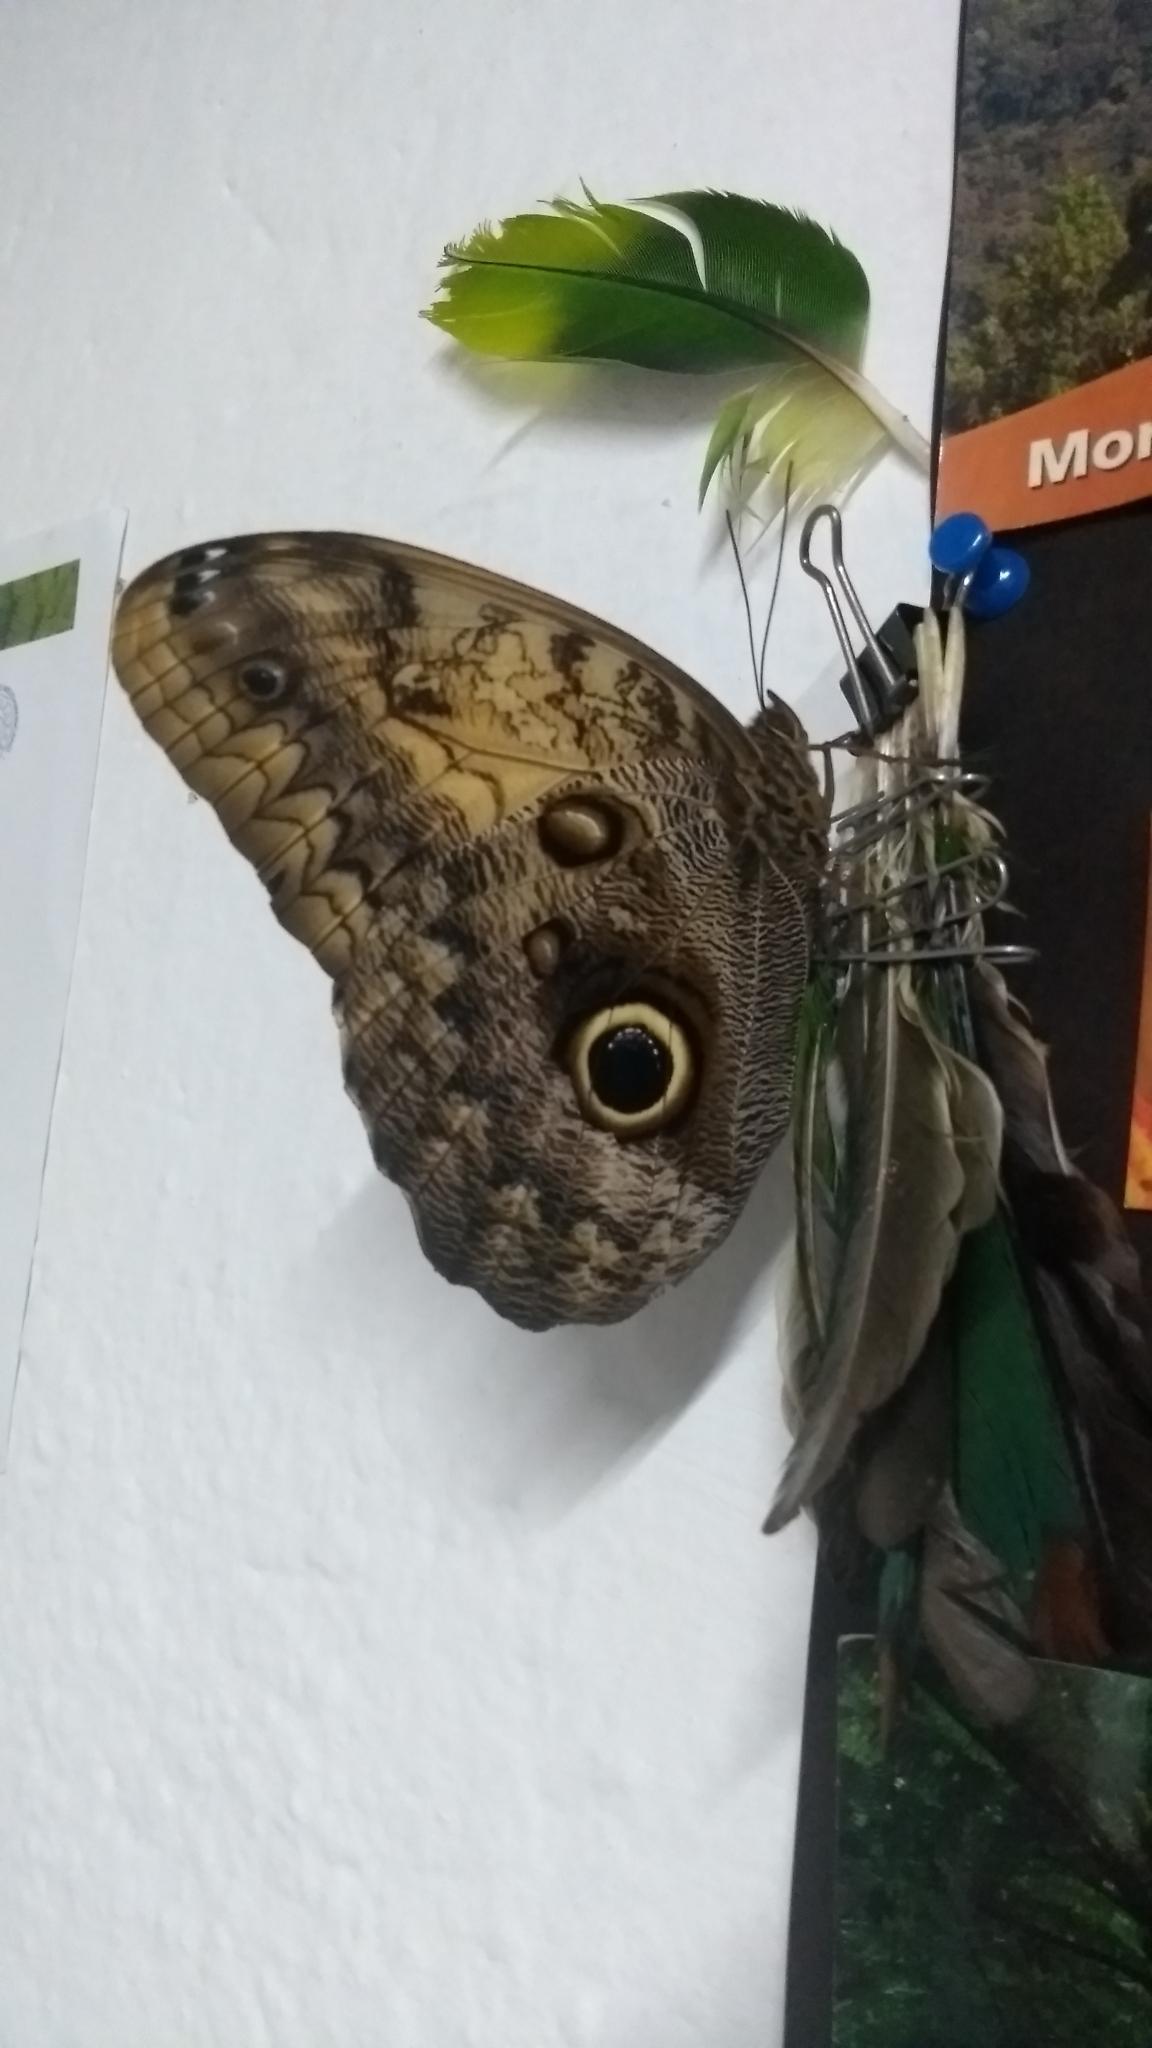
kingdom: Animalia
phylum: Arthropoda
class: Insecta
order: Lepidoptera
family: Nymphalidae
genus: Caligo
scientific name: Caligo telamonius
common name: Pale owl-butterfly
